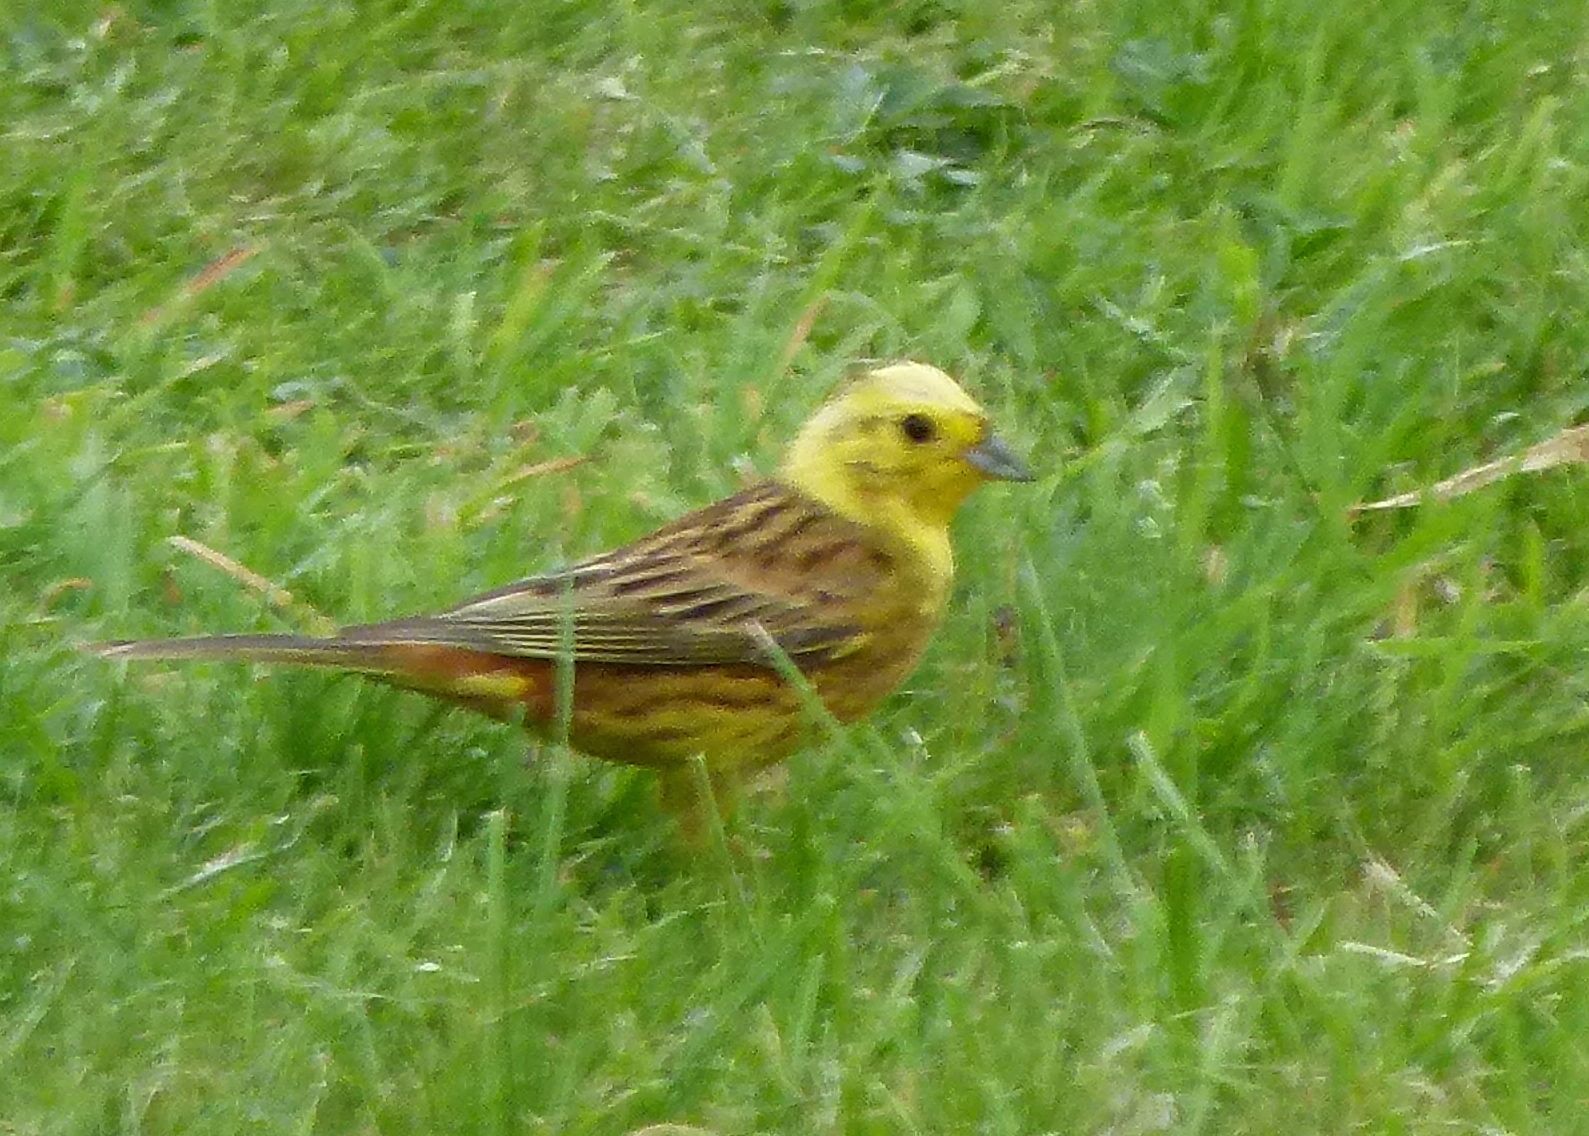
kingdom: Animalia
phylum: Chordata
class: Aves
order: Passeriformes
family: Emberizidae
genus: Emberiza
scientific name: Emberiza citrinella
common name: Yellowhammer
